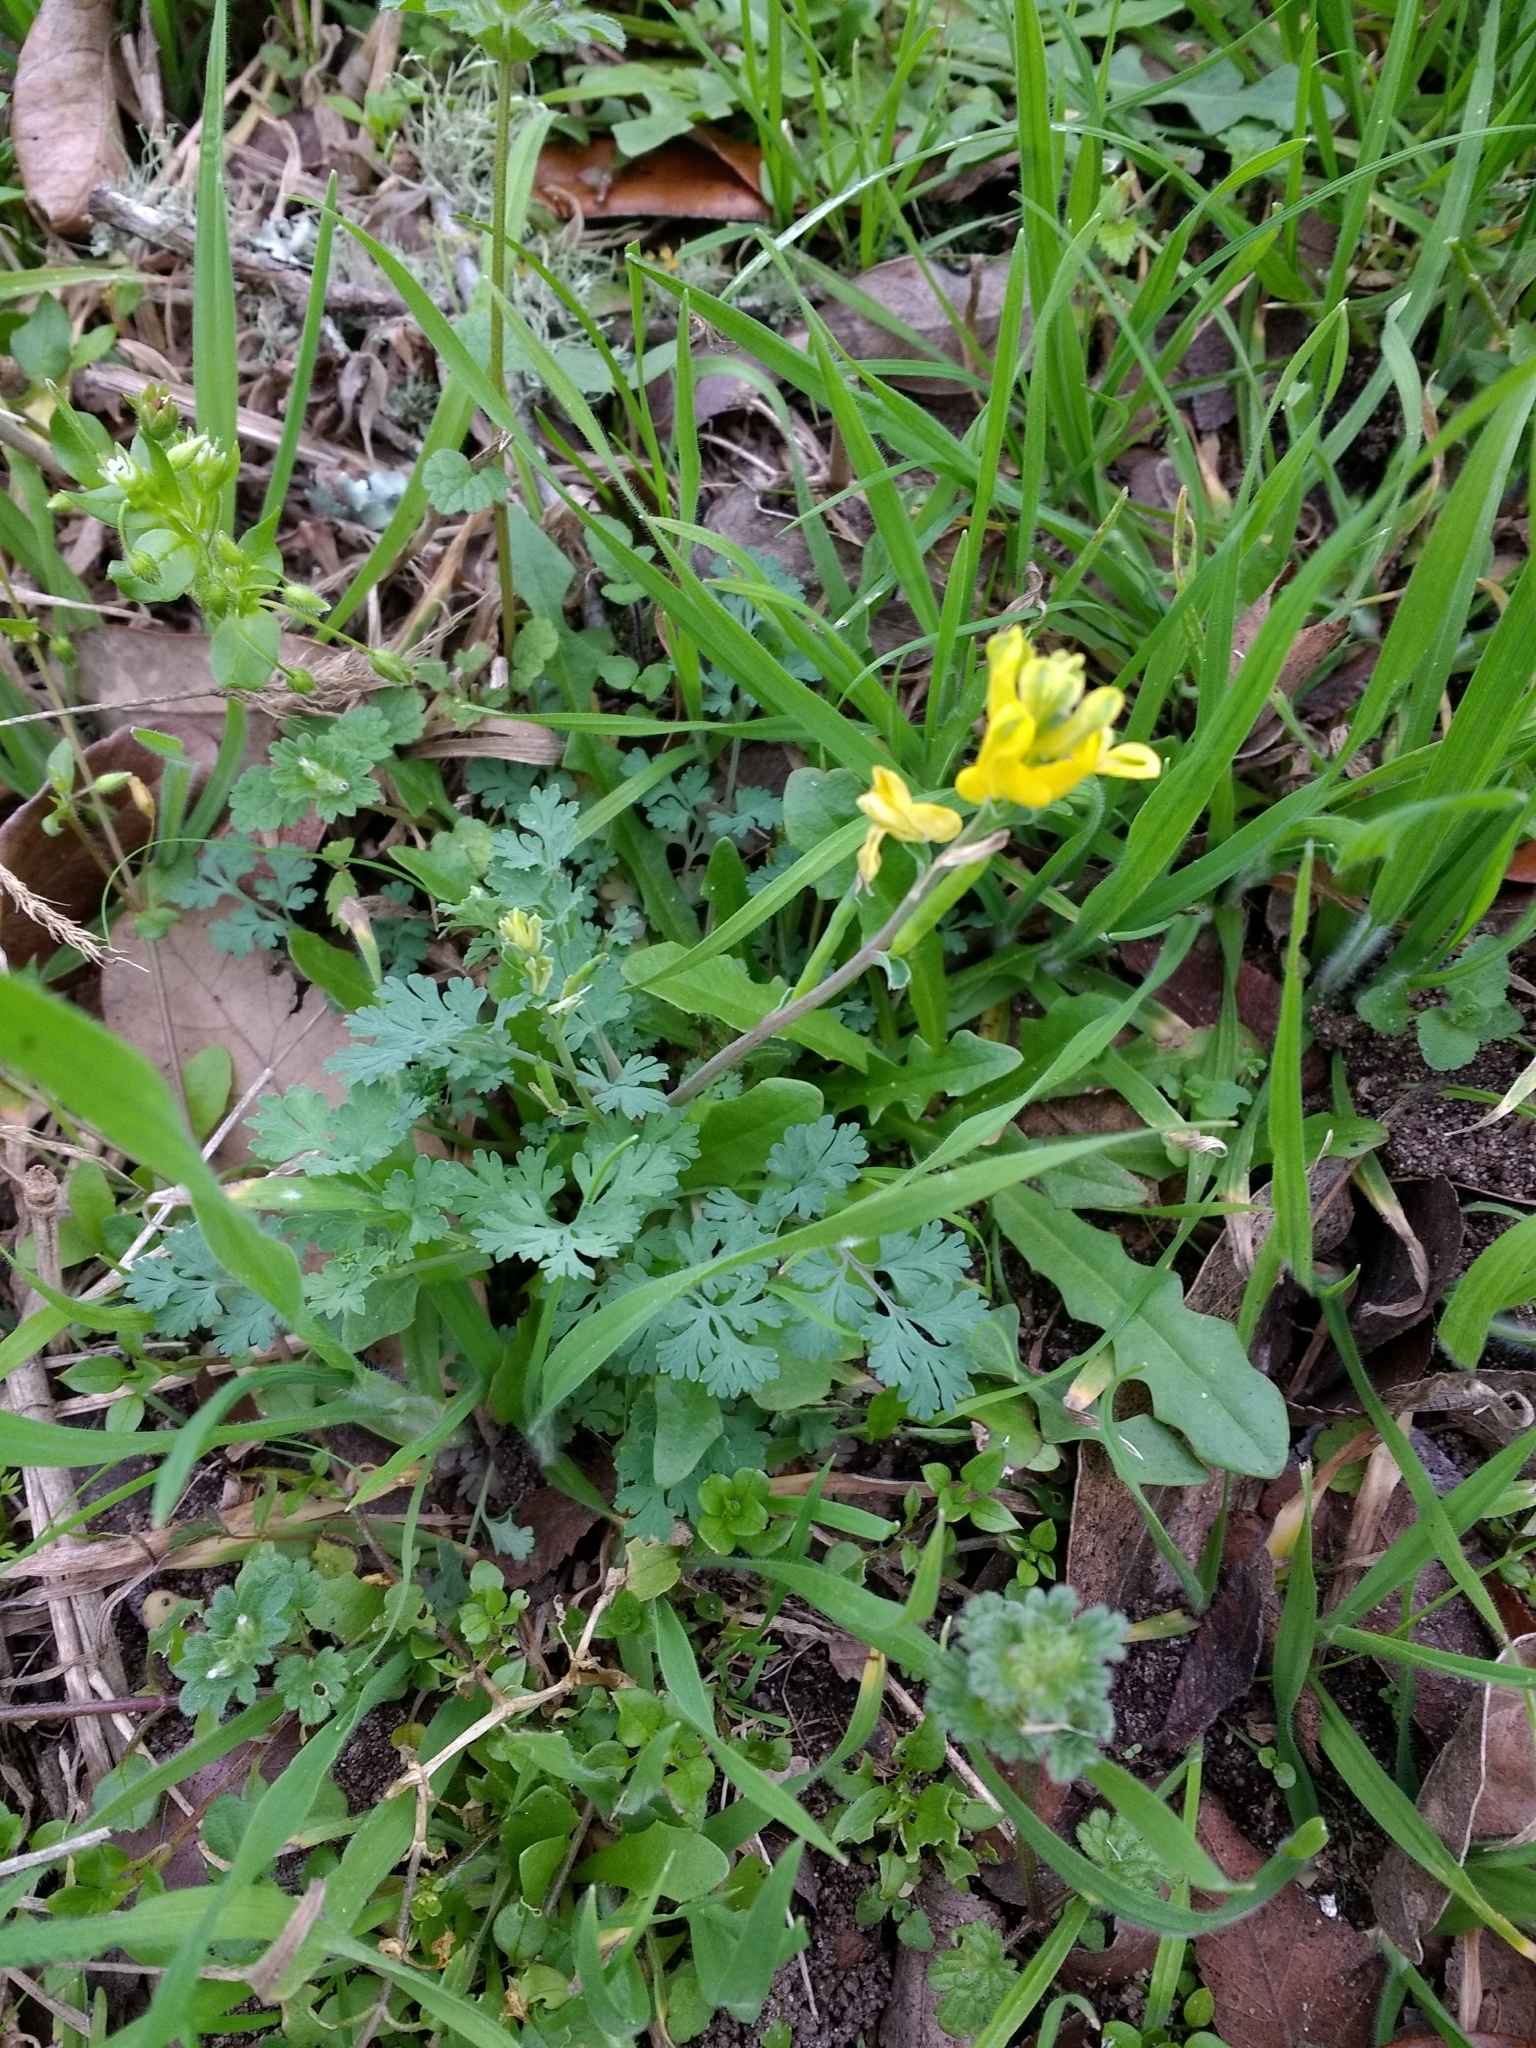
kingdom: Plantae
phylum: Tracheophyta
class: Magnoliopsida
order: Ranunculales
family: Papaveraceae
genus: Corydalis
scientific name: Corydalis micrantha
